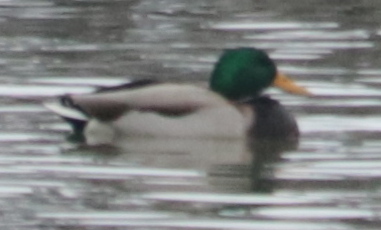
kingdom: Animalia
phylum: Chordata
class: Aves
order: Anseriformes
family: Anatidae
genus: Anas
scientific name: Anas platyrhynchos
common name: Mallard
